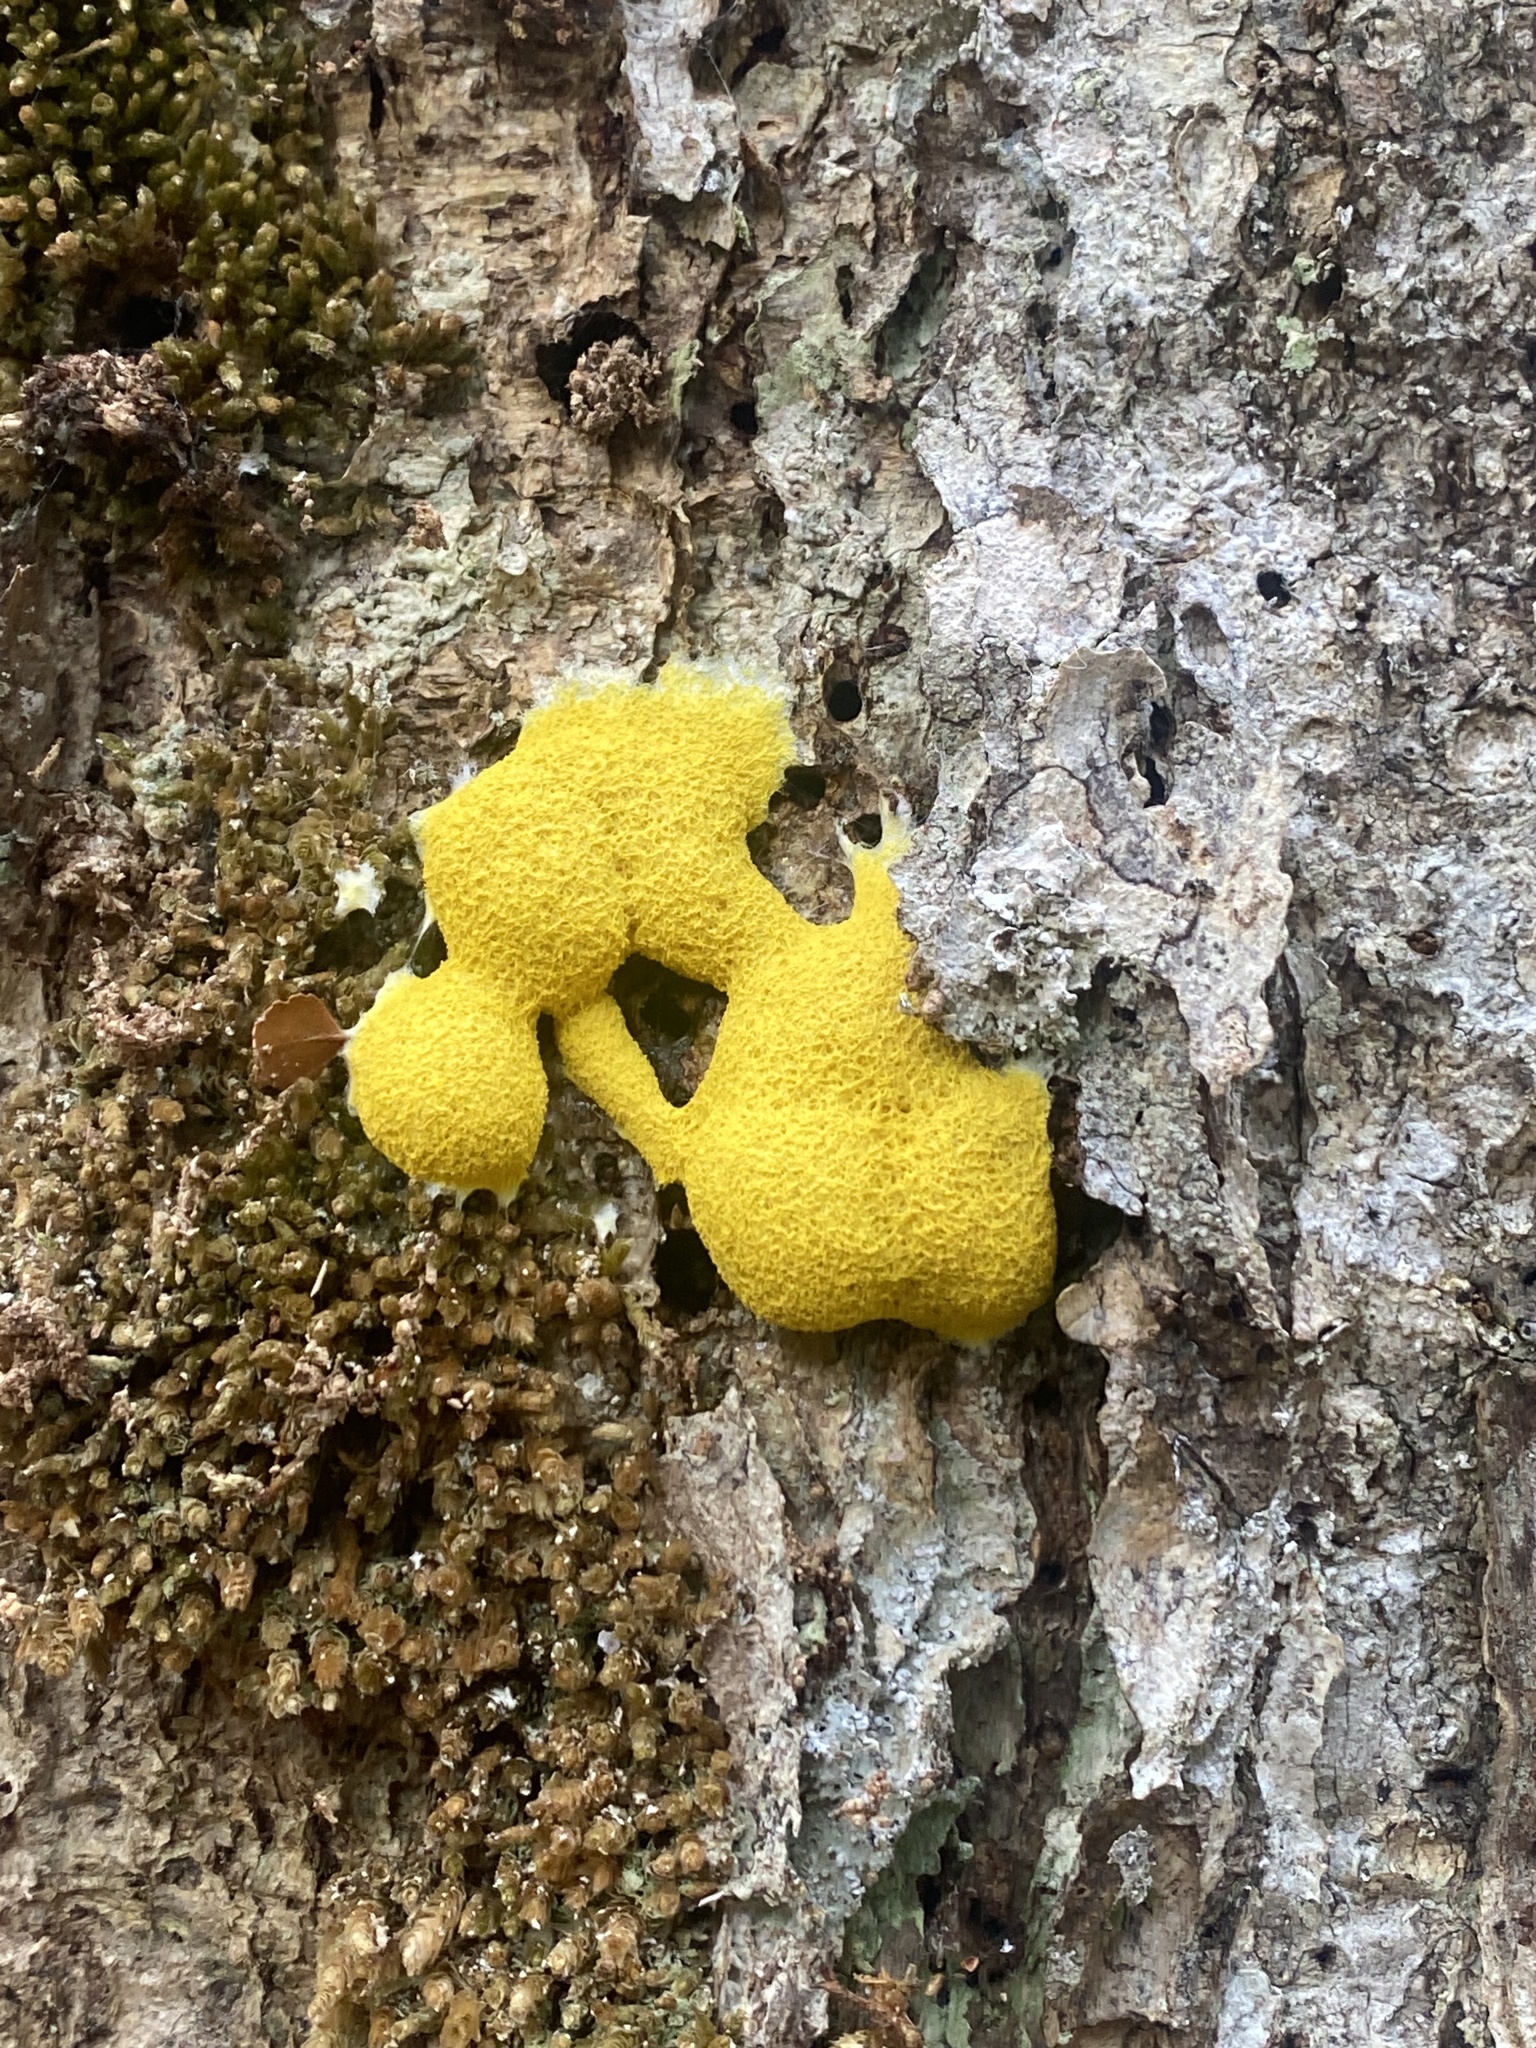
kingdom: Protozoa
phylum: Mycetozoa
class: Myxomycetes
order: Physarales
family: Physaraceae
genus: Fuligo
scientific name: Fuligo septica
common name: Dog vomit slime mold
